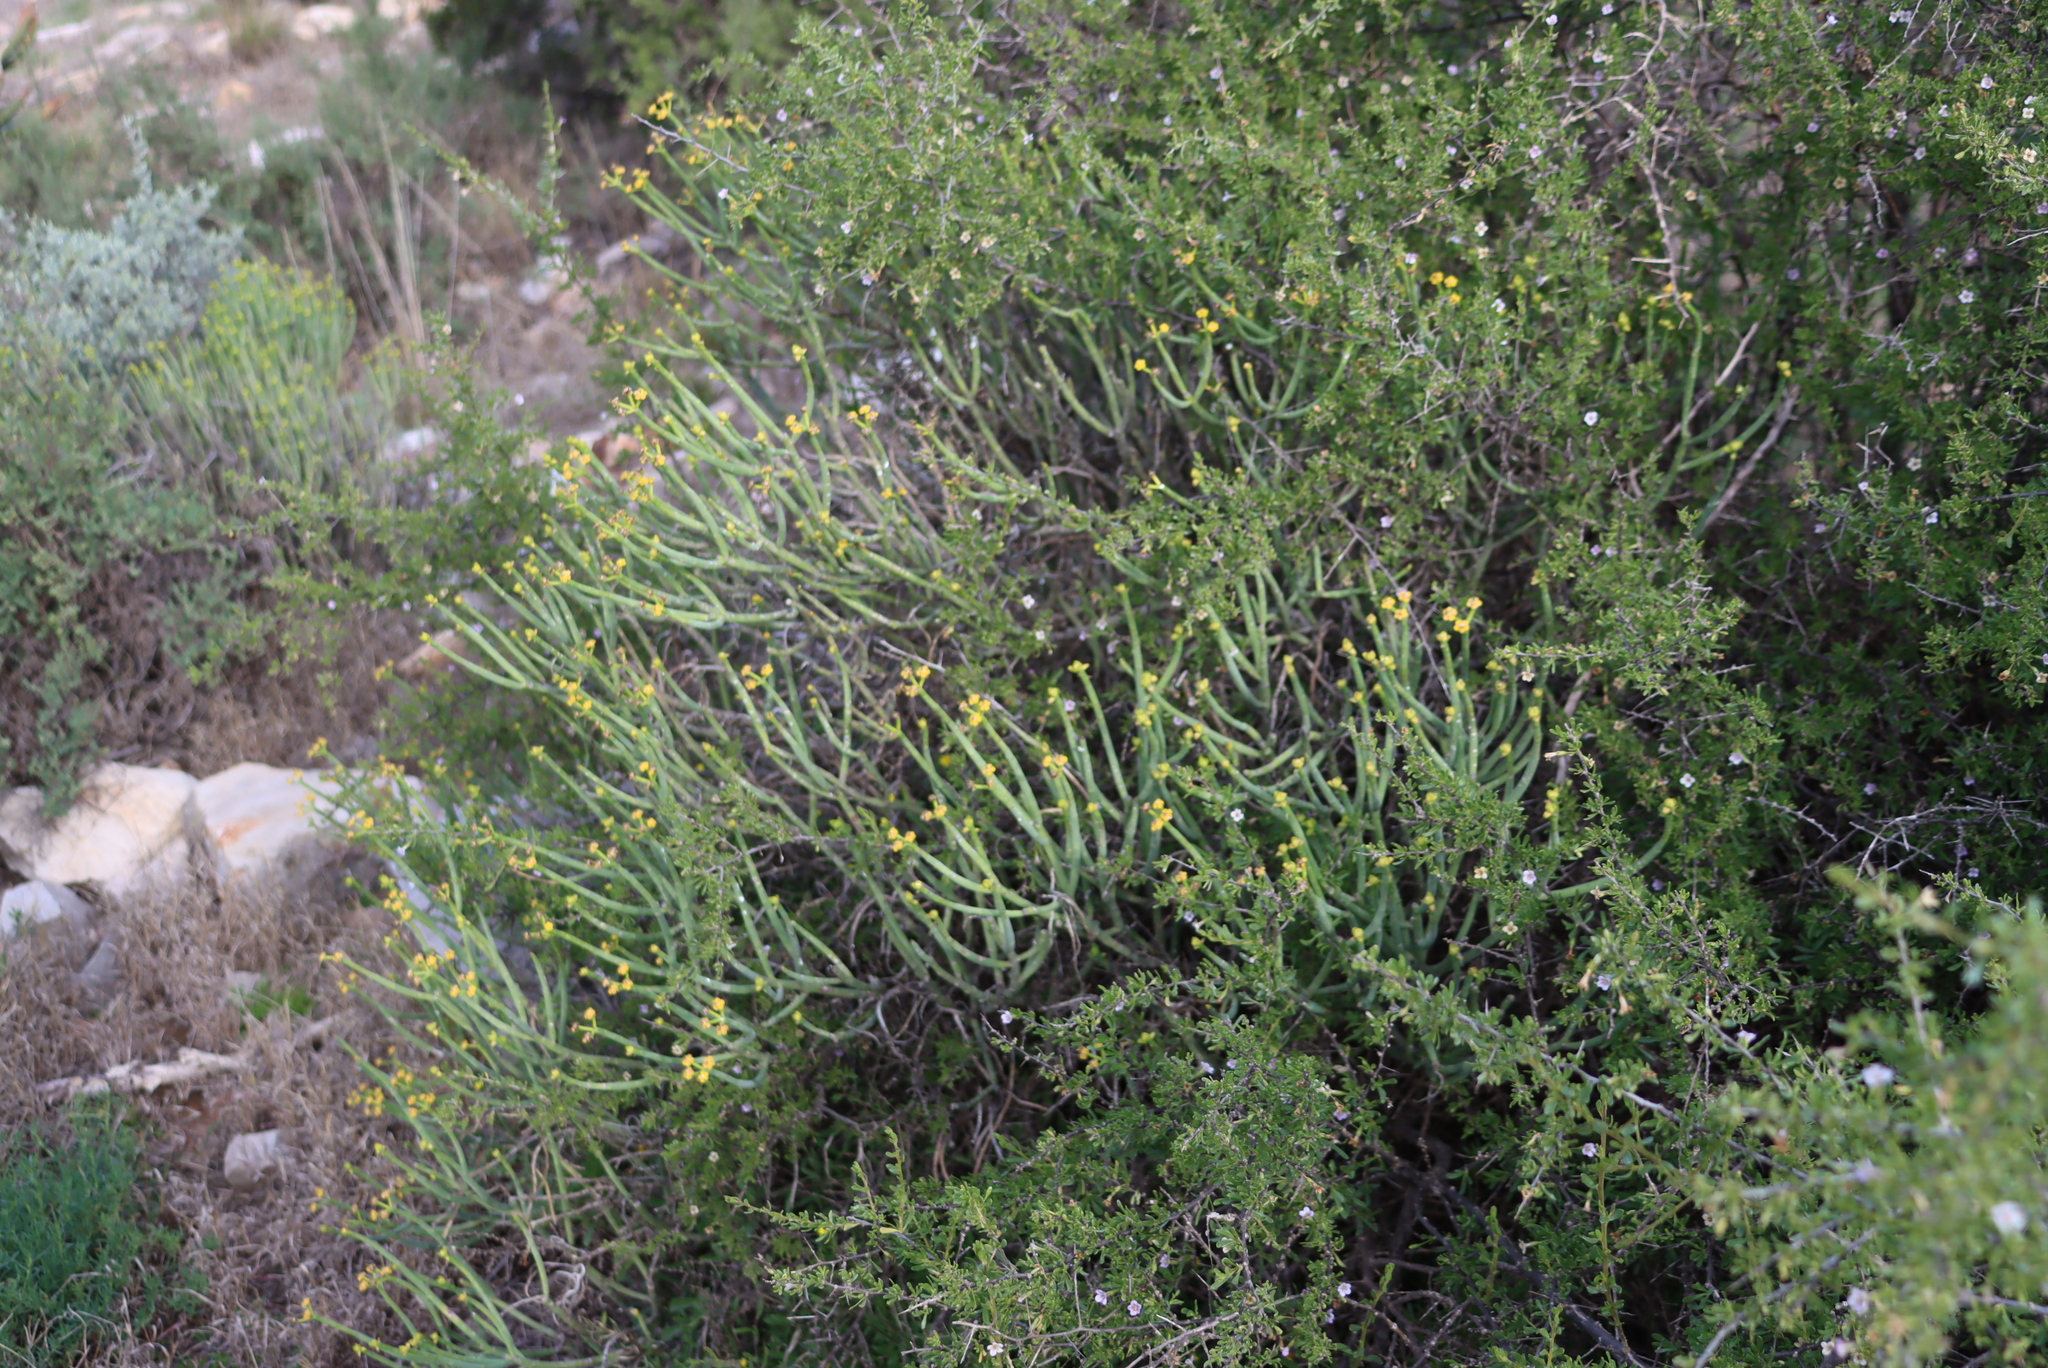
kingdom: Plantae
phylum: Tracheophyta
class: Magnoliopsida
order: Malpighiales
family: Euphorbiaceae
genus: Euphorbia
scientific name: Euphorbia mauritanica
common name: Jackal's-food
